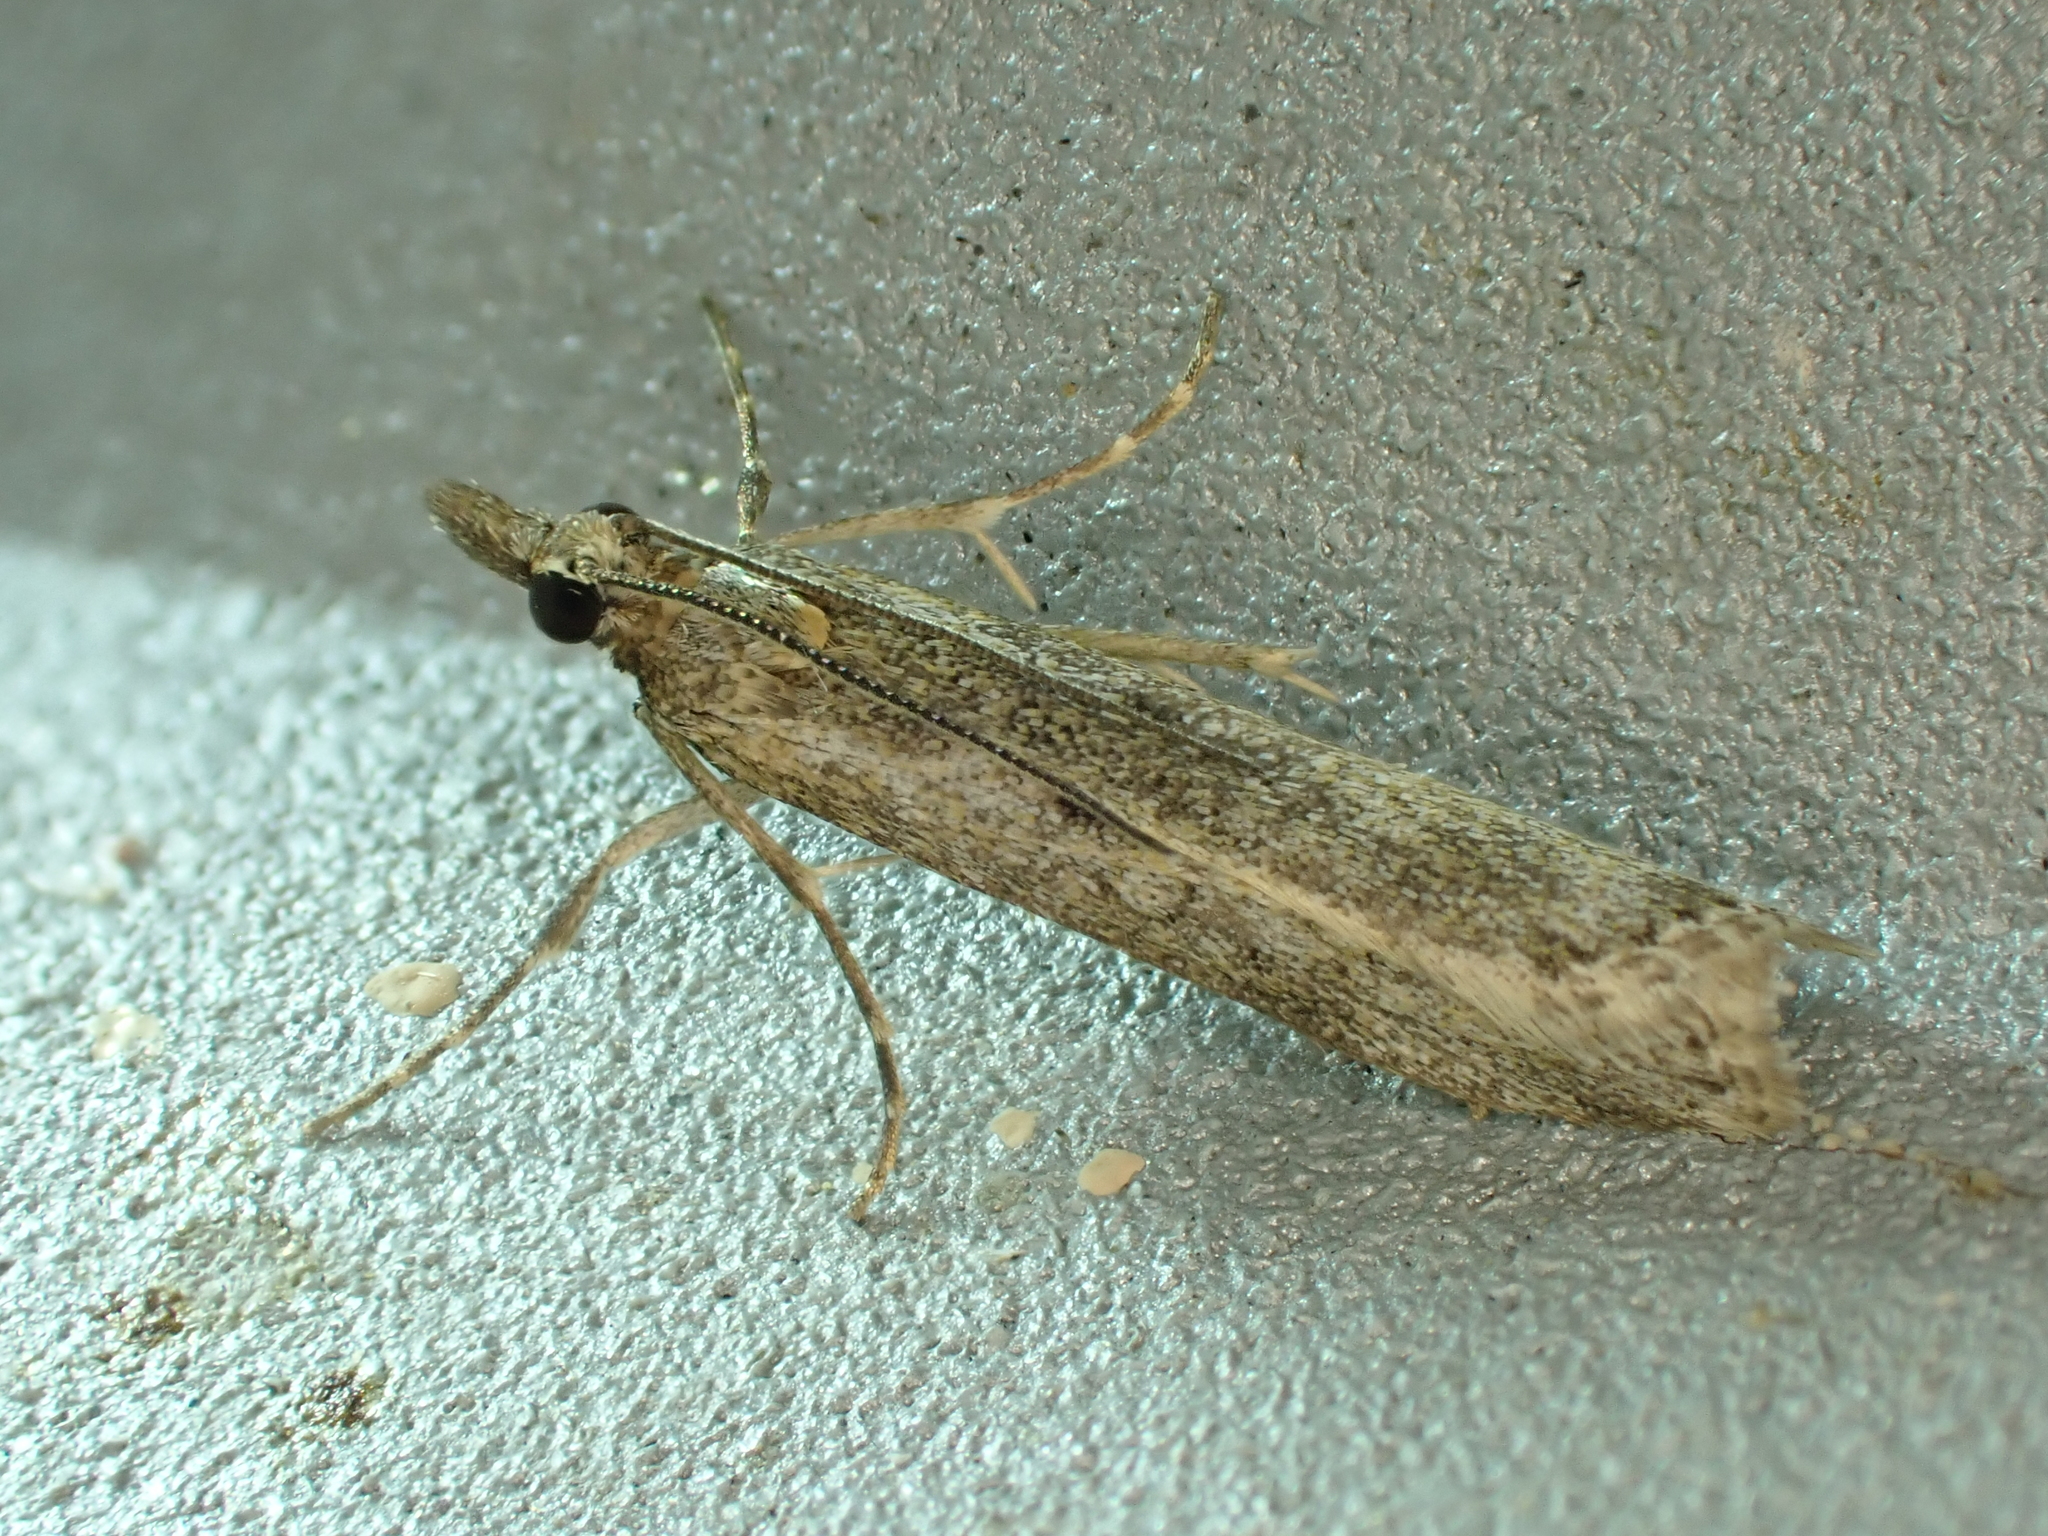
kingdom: Animalia
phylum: Arthropoda
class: Insecta
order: Lepidoptera
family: Crambidae
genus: Eudonia
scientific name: Eudonia leptalea
